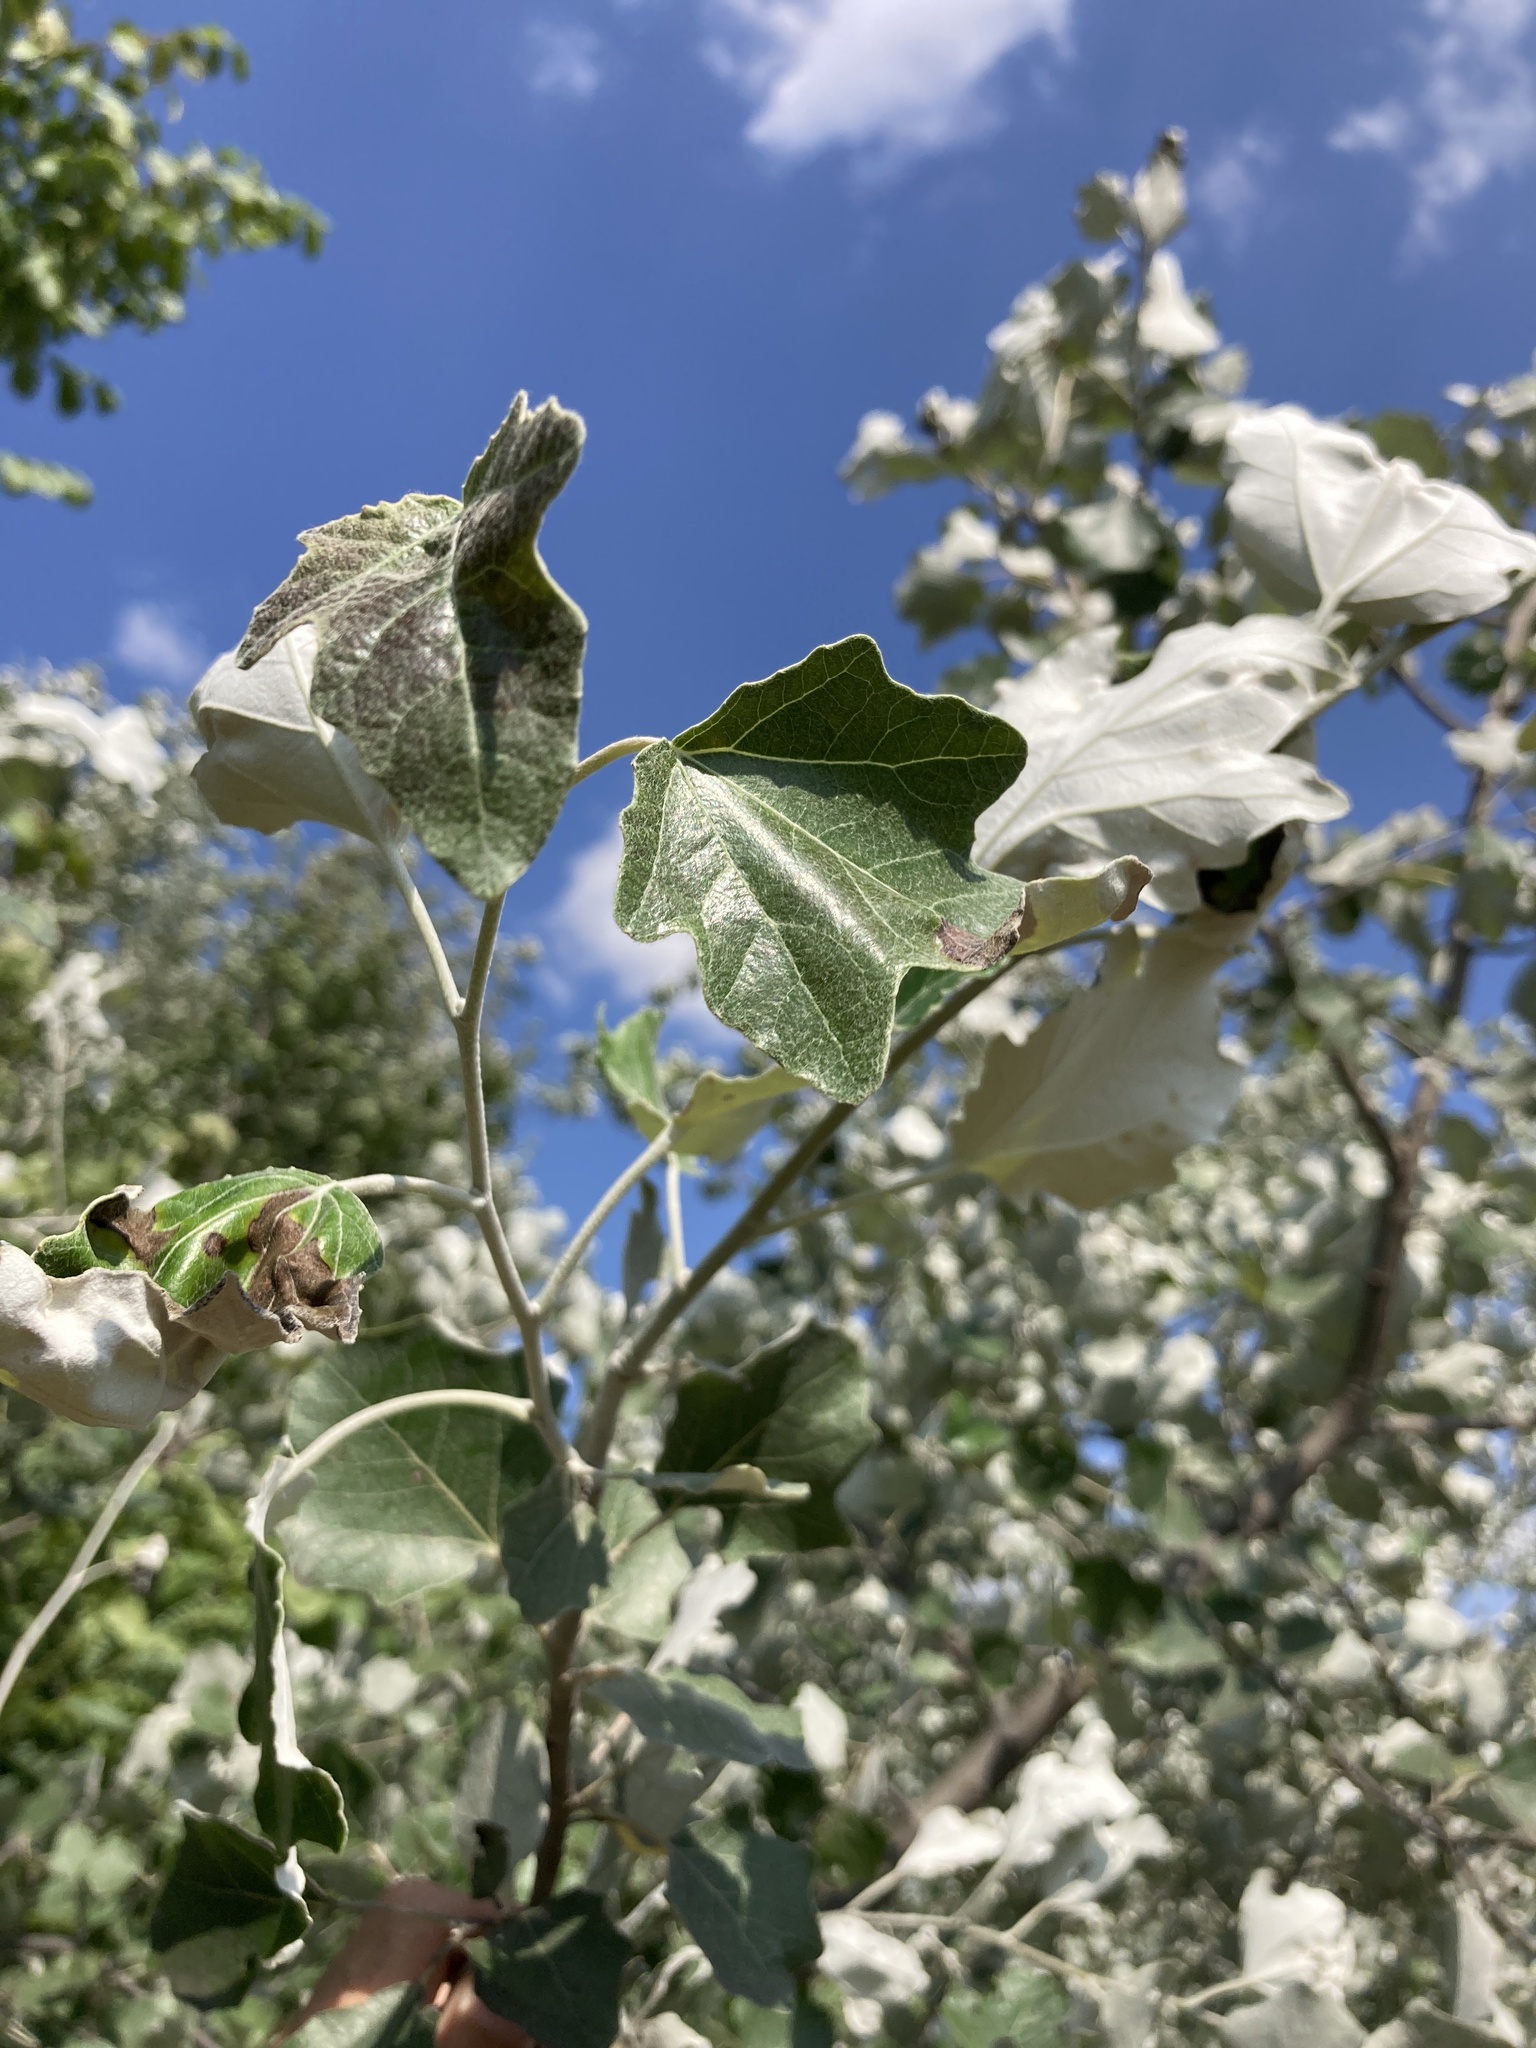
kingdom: Plantae
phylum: Tracheophyta
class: Magnoliopsida
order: Malpighiales
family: Salicaceae
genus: Populus
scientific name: Populus alba
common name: White poplar
